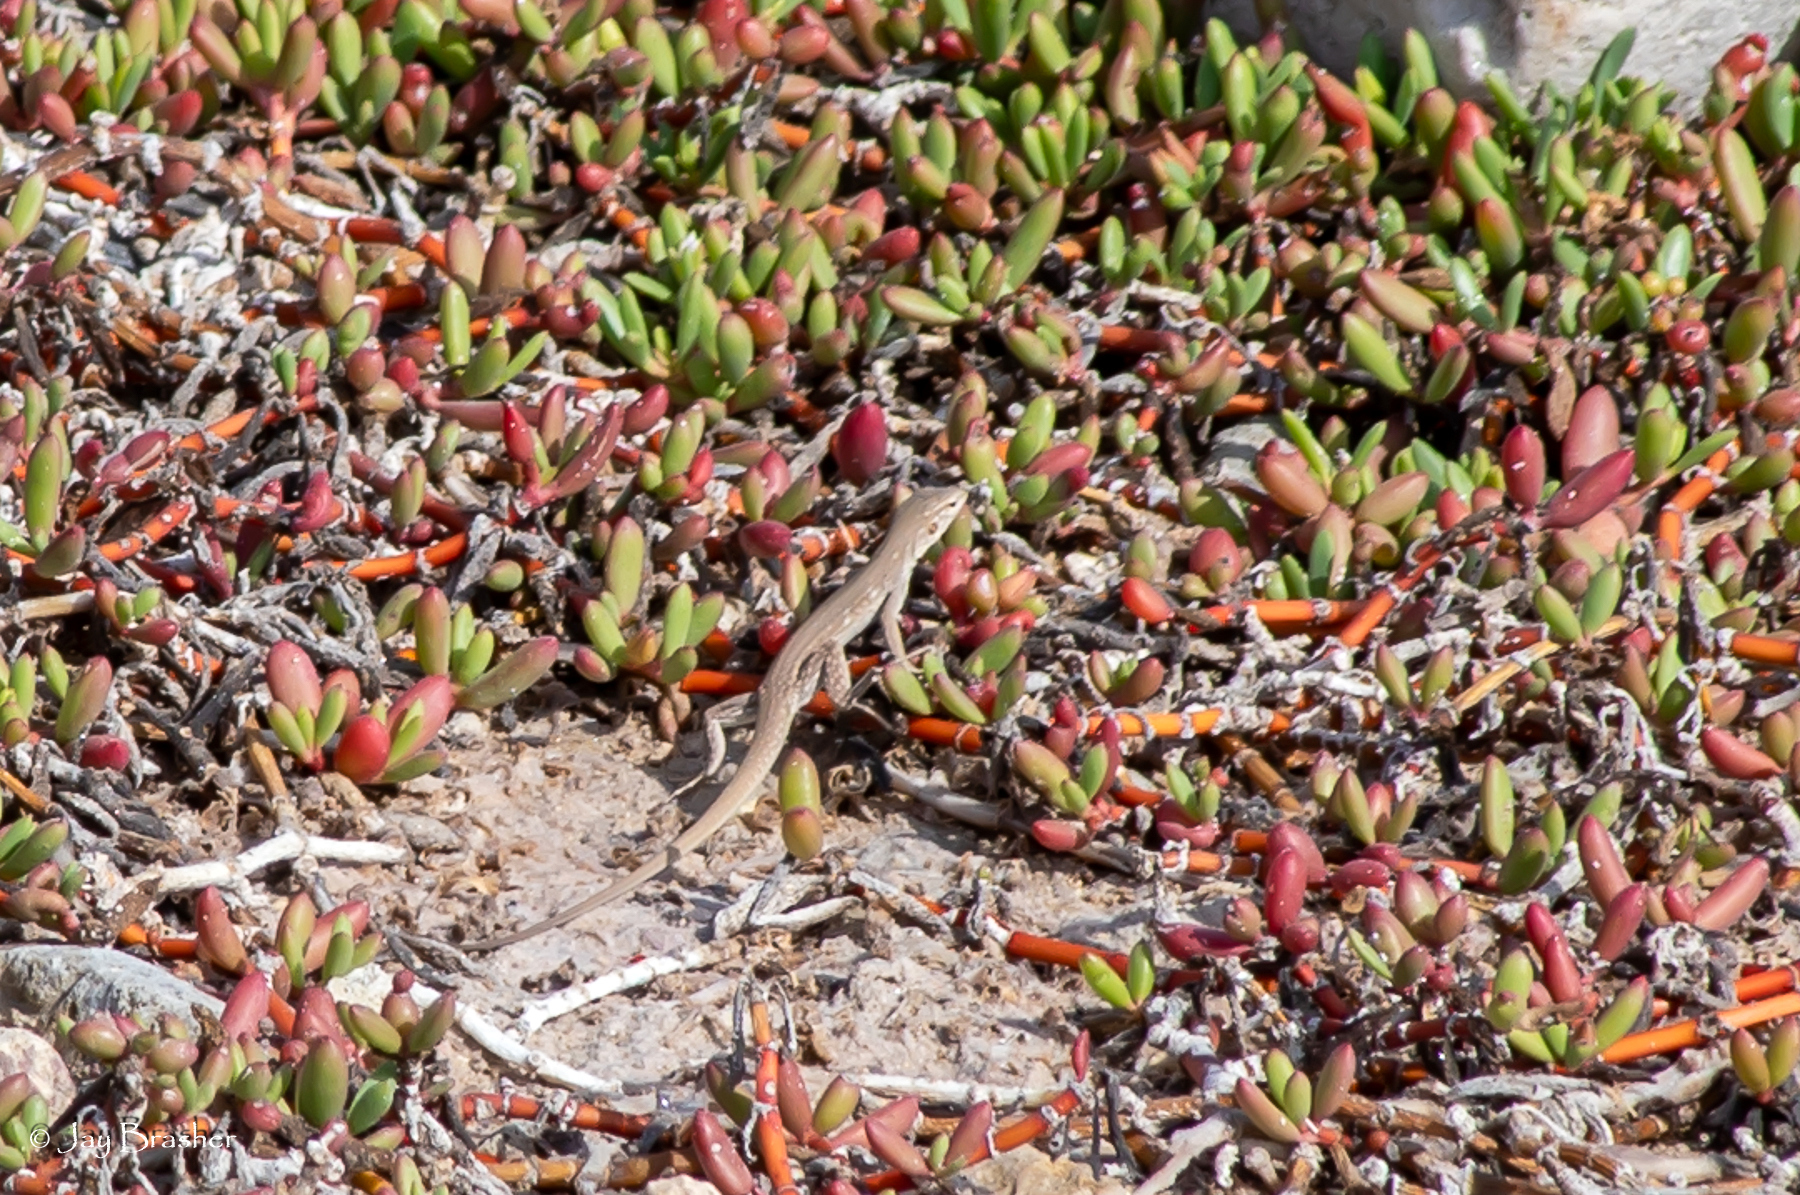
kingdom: Animalia
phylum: Chordata
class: Squamata
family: Teiidae
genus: Cnemidophorus
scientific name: Cnemidophorus ruthveni
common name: Bonaire whiptail
